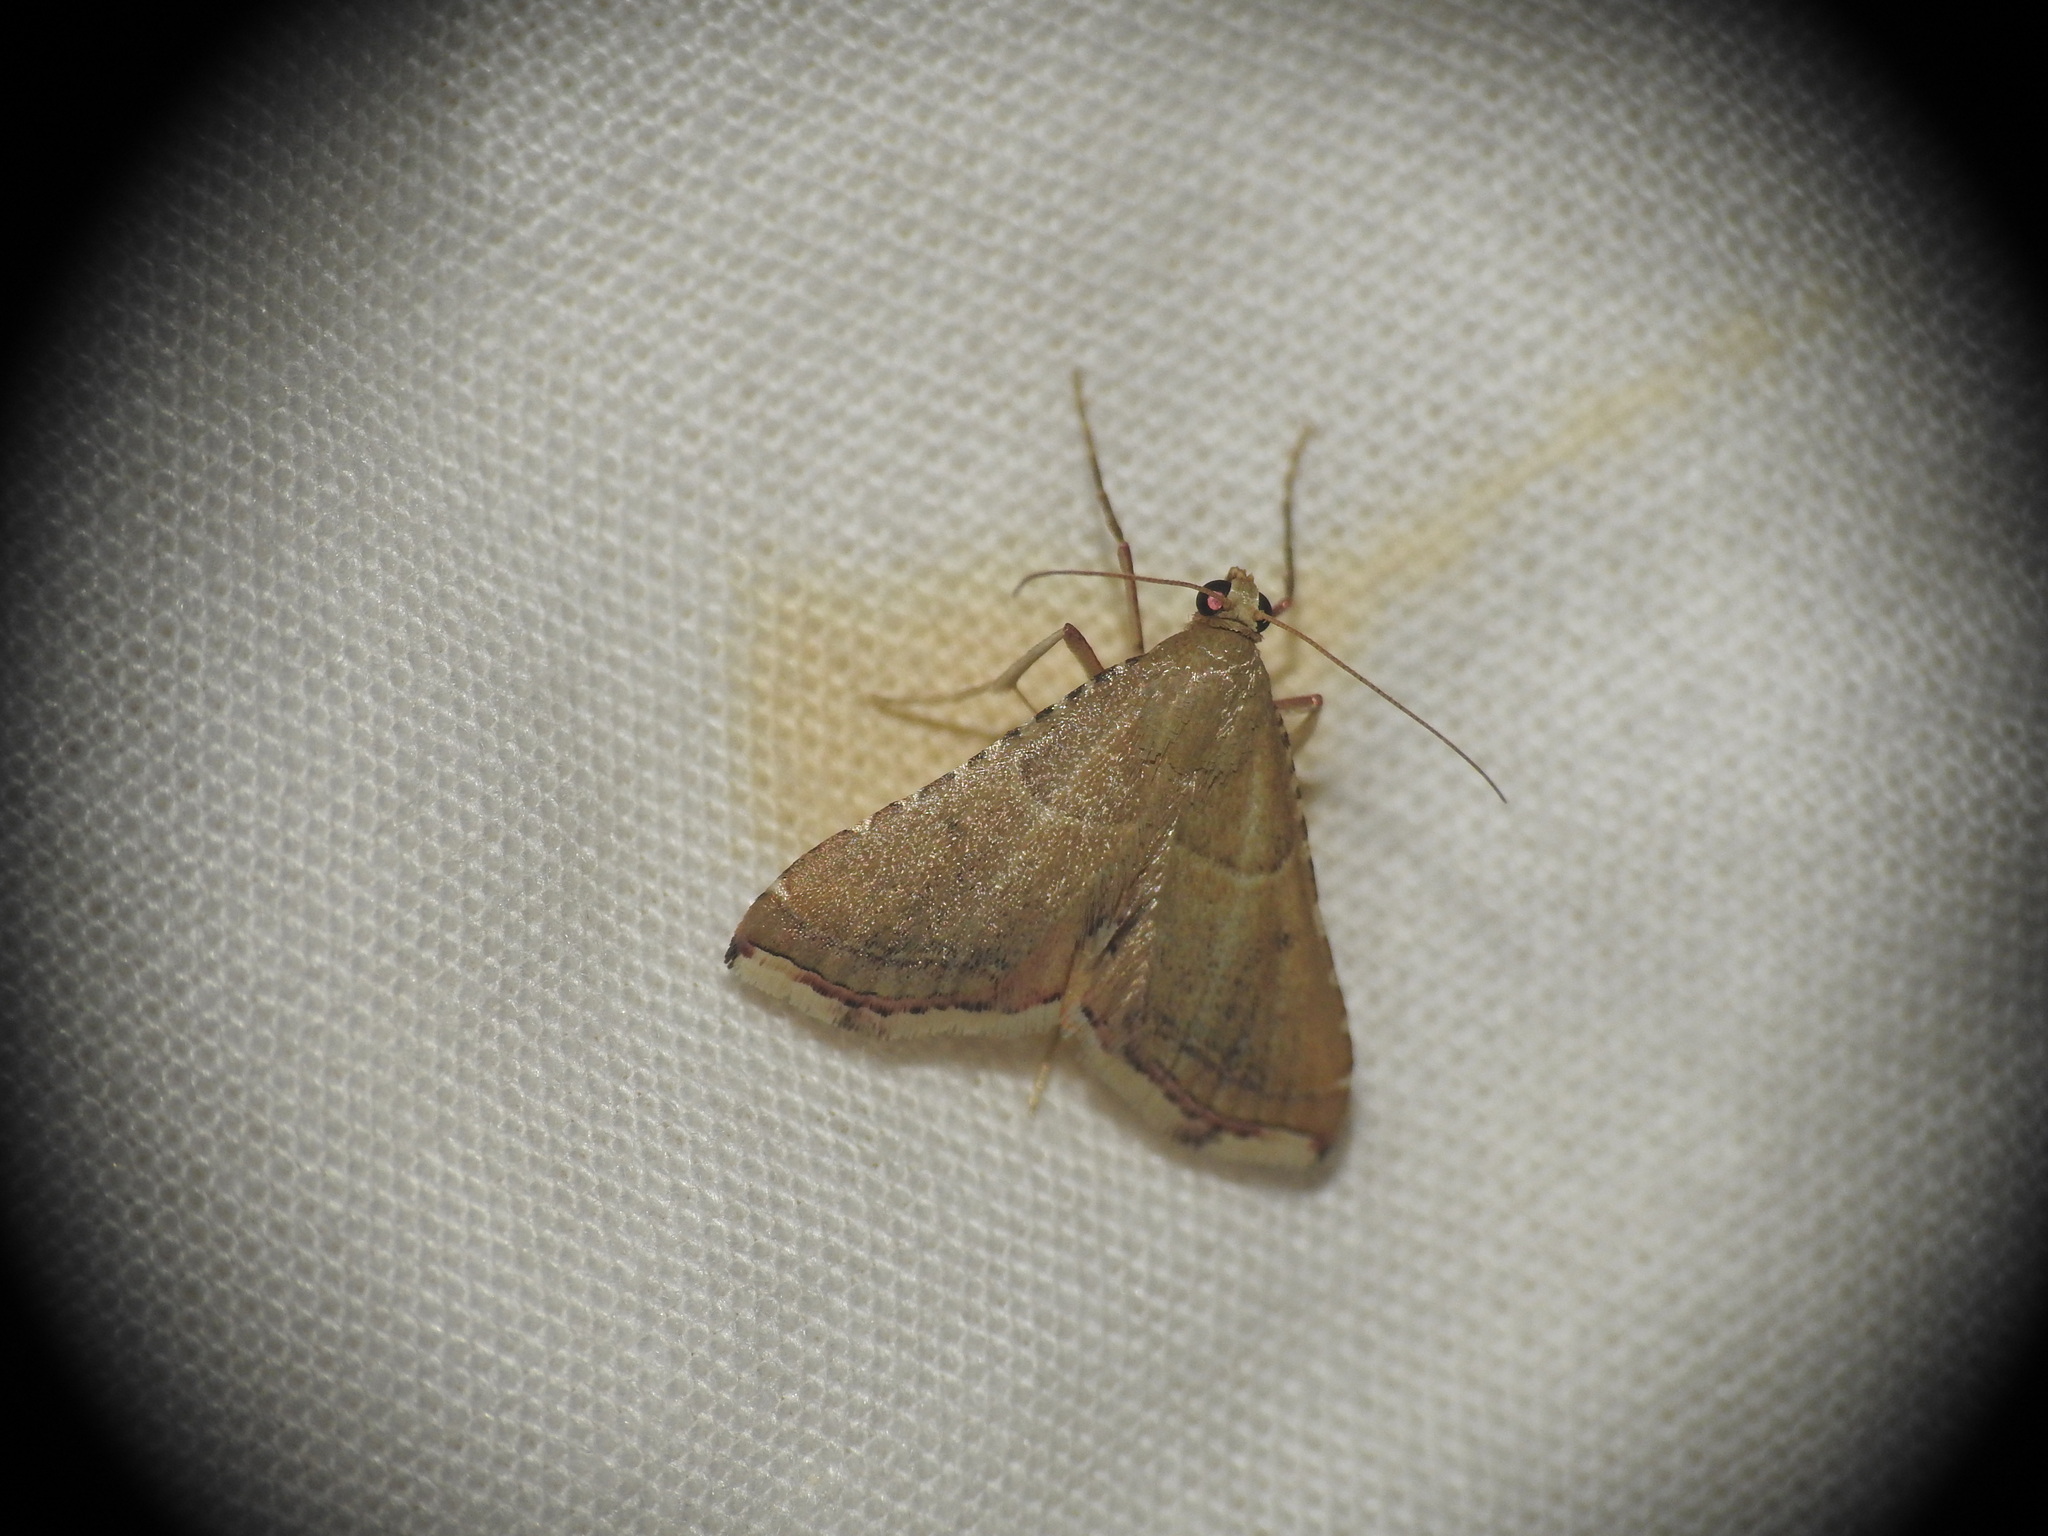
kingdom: Animalia
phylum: Arthropoda
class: Insecta
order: Lepidoptera
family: Pyralidae
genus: Endotricha
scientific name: Endotricha flammealis
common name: Rosy tabby
